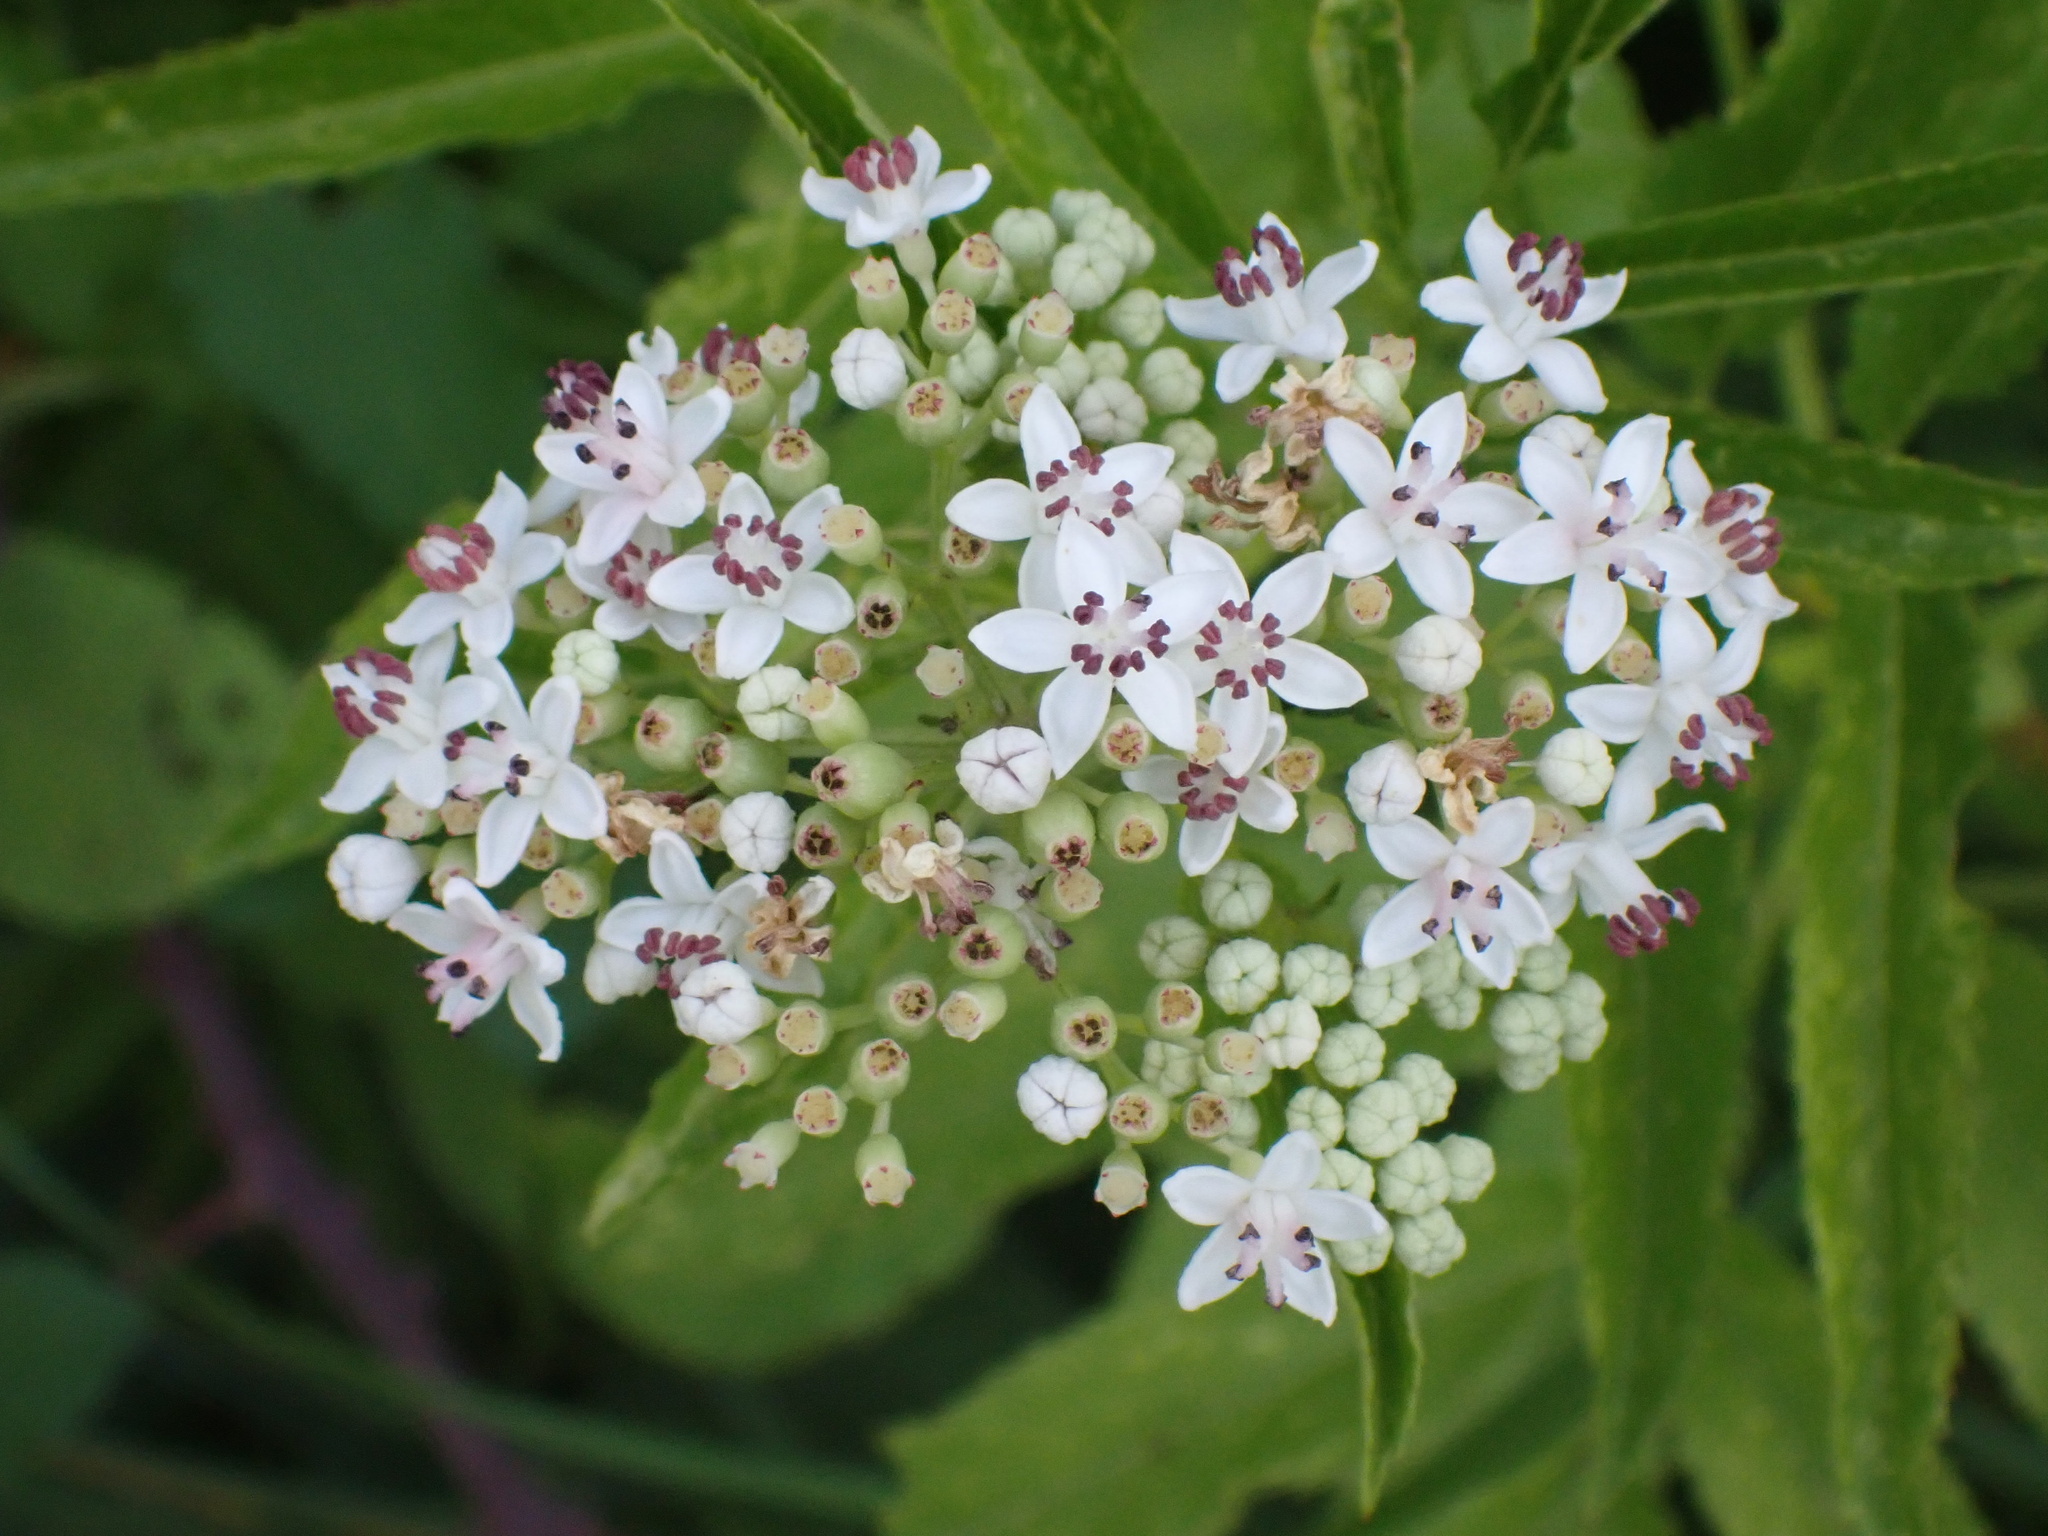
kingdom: Plantae
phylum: Tracheophyta
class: Magnoliopsida
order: Dipsacales
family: Viburnaceae
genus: Sambucus
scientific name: Sambucus ebulus
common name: Dwarf elder
